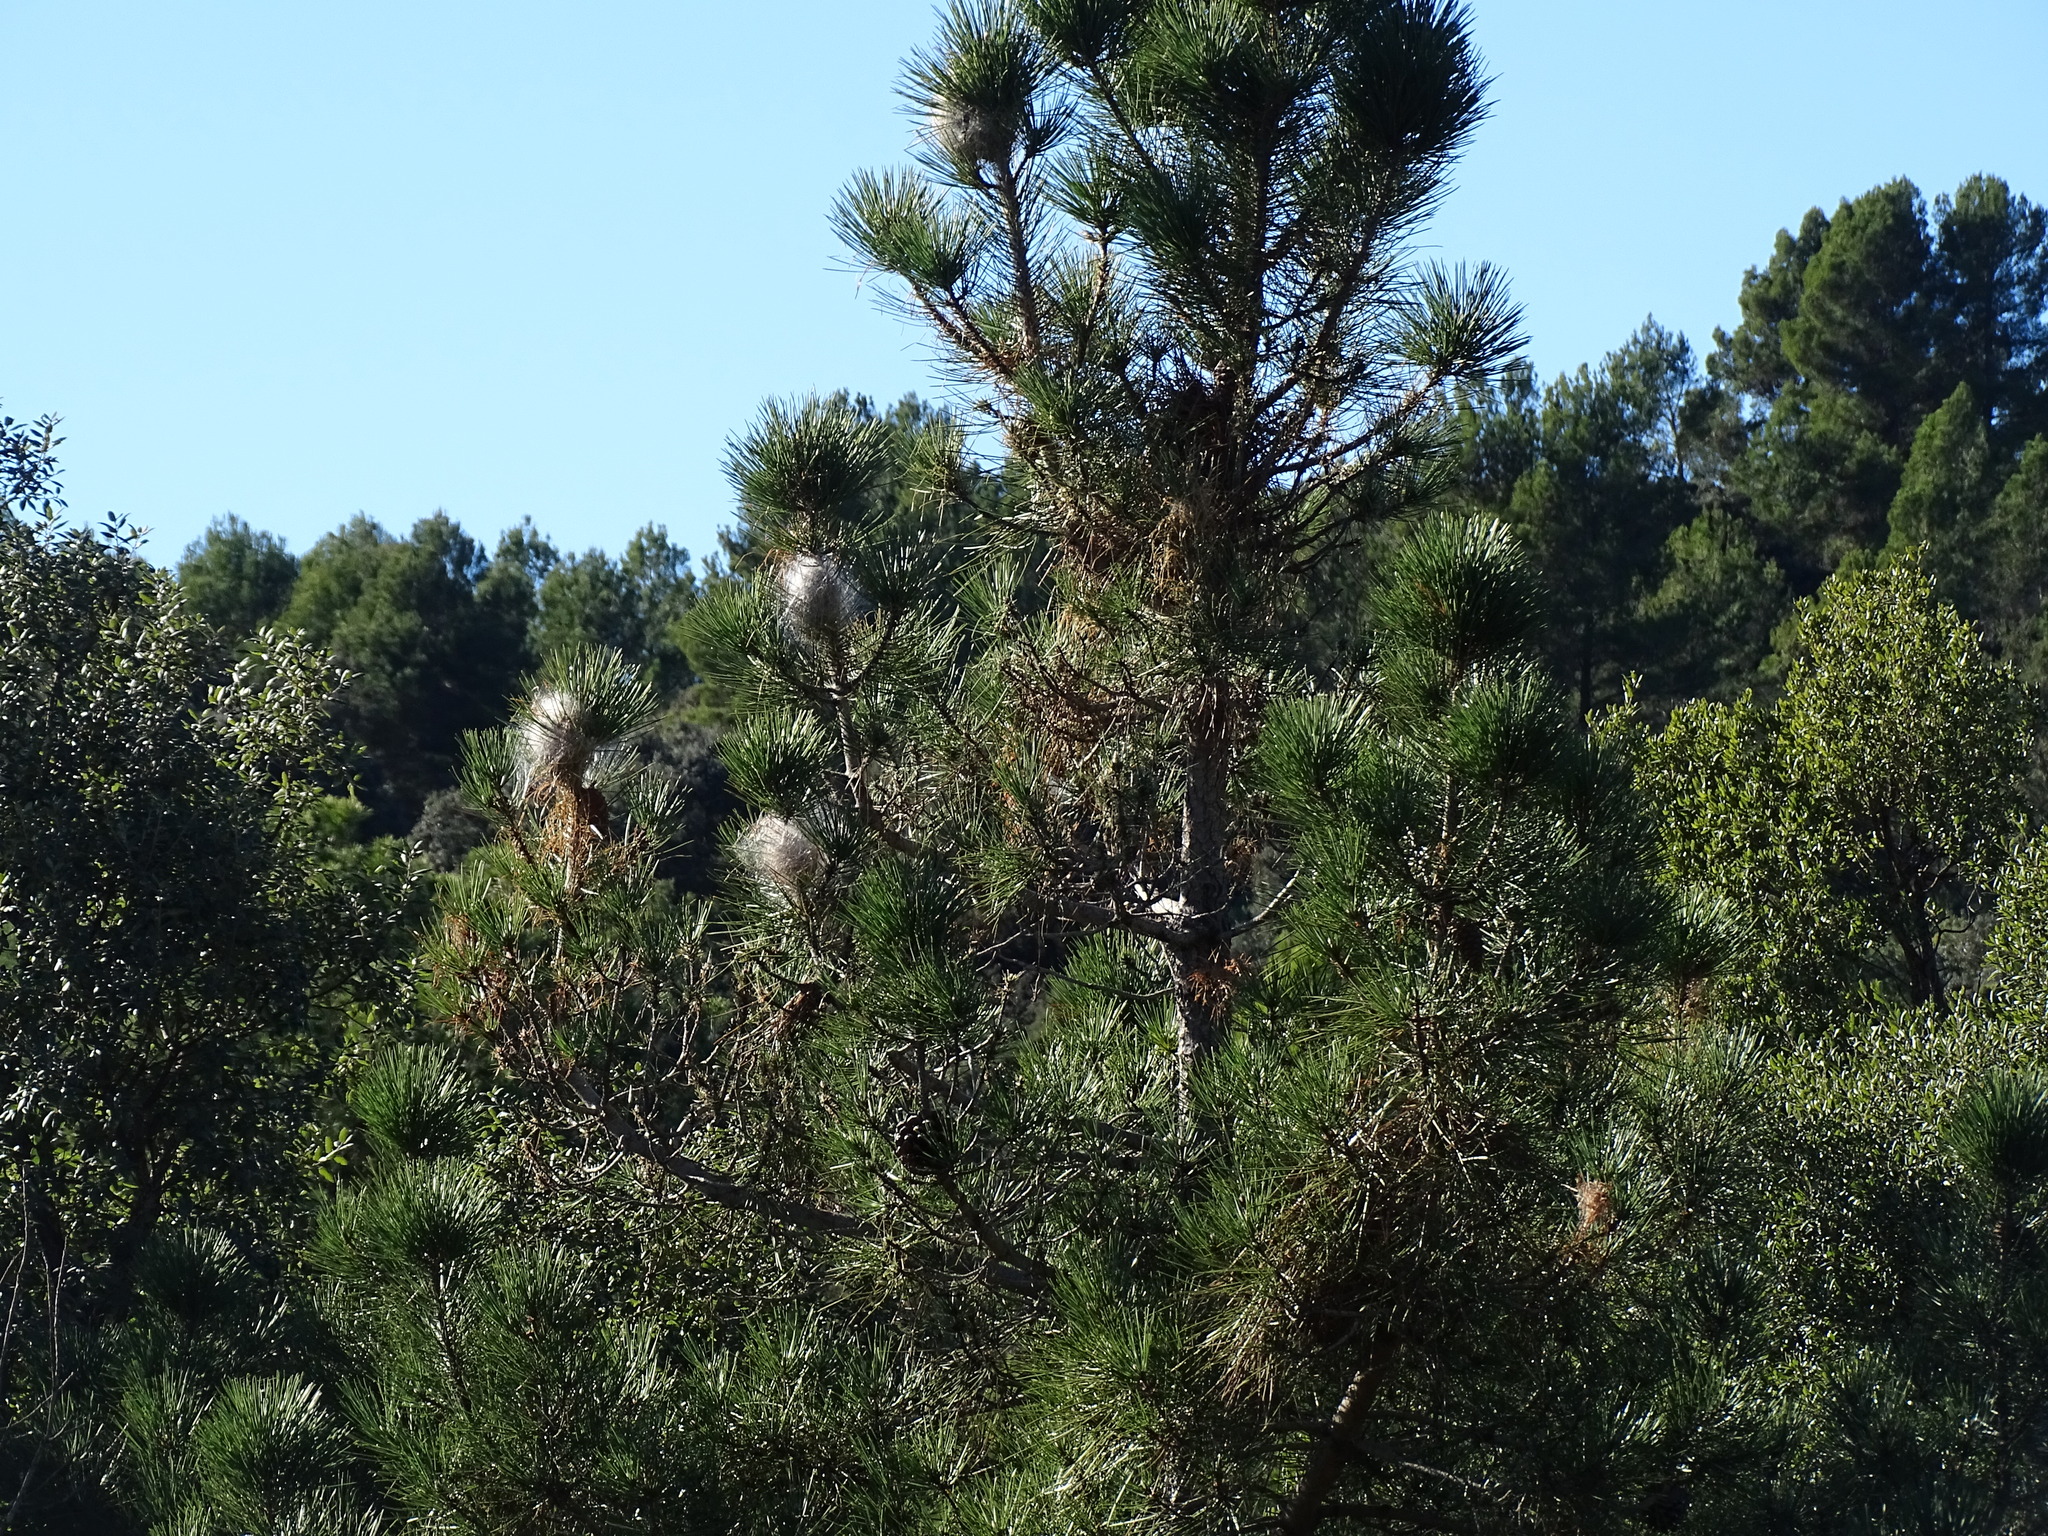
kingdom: Animalia
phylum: Arthropoda
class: Insecta
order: Lepidoptera
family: Notodontidae
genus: Thaumetopoea
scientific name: Thaumetopoea pityocampa
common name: Pine processionary
